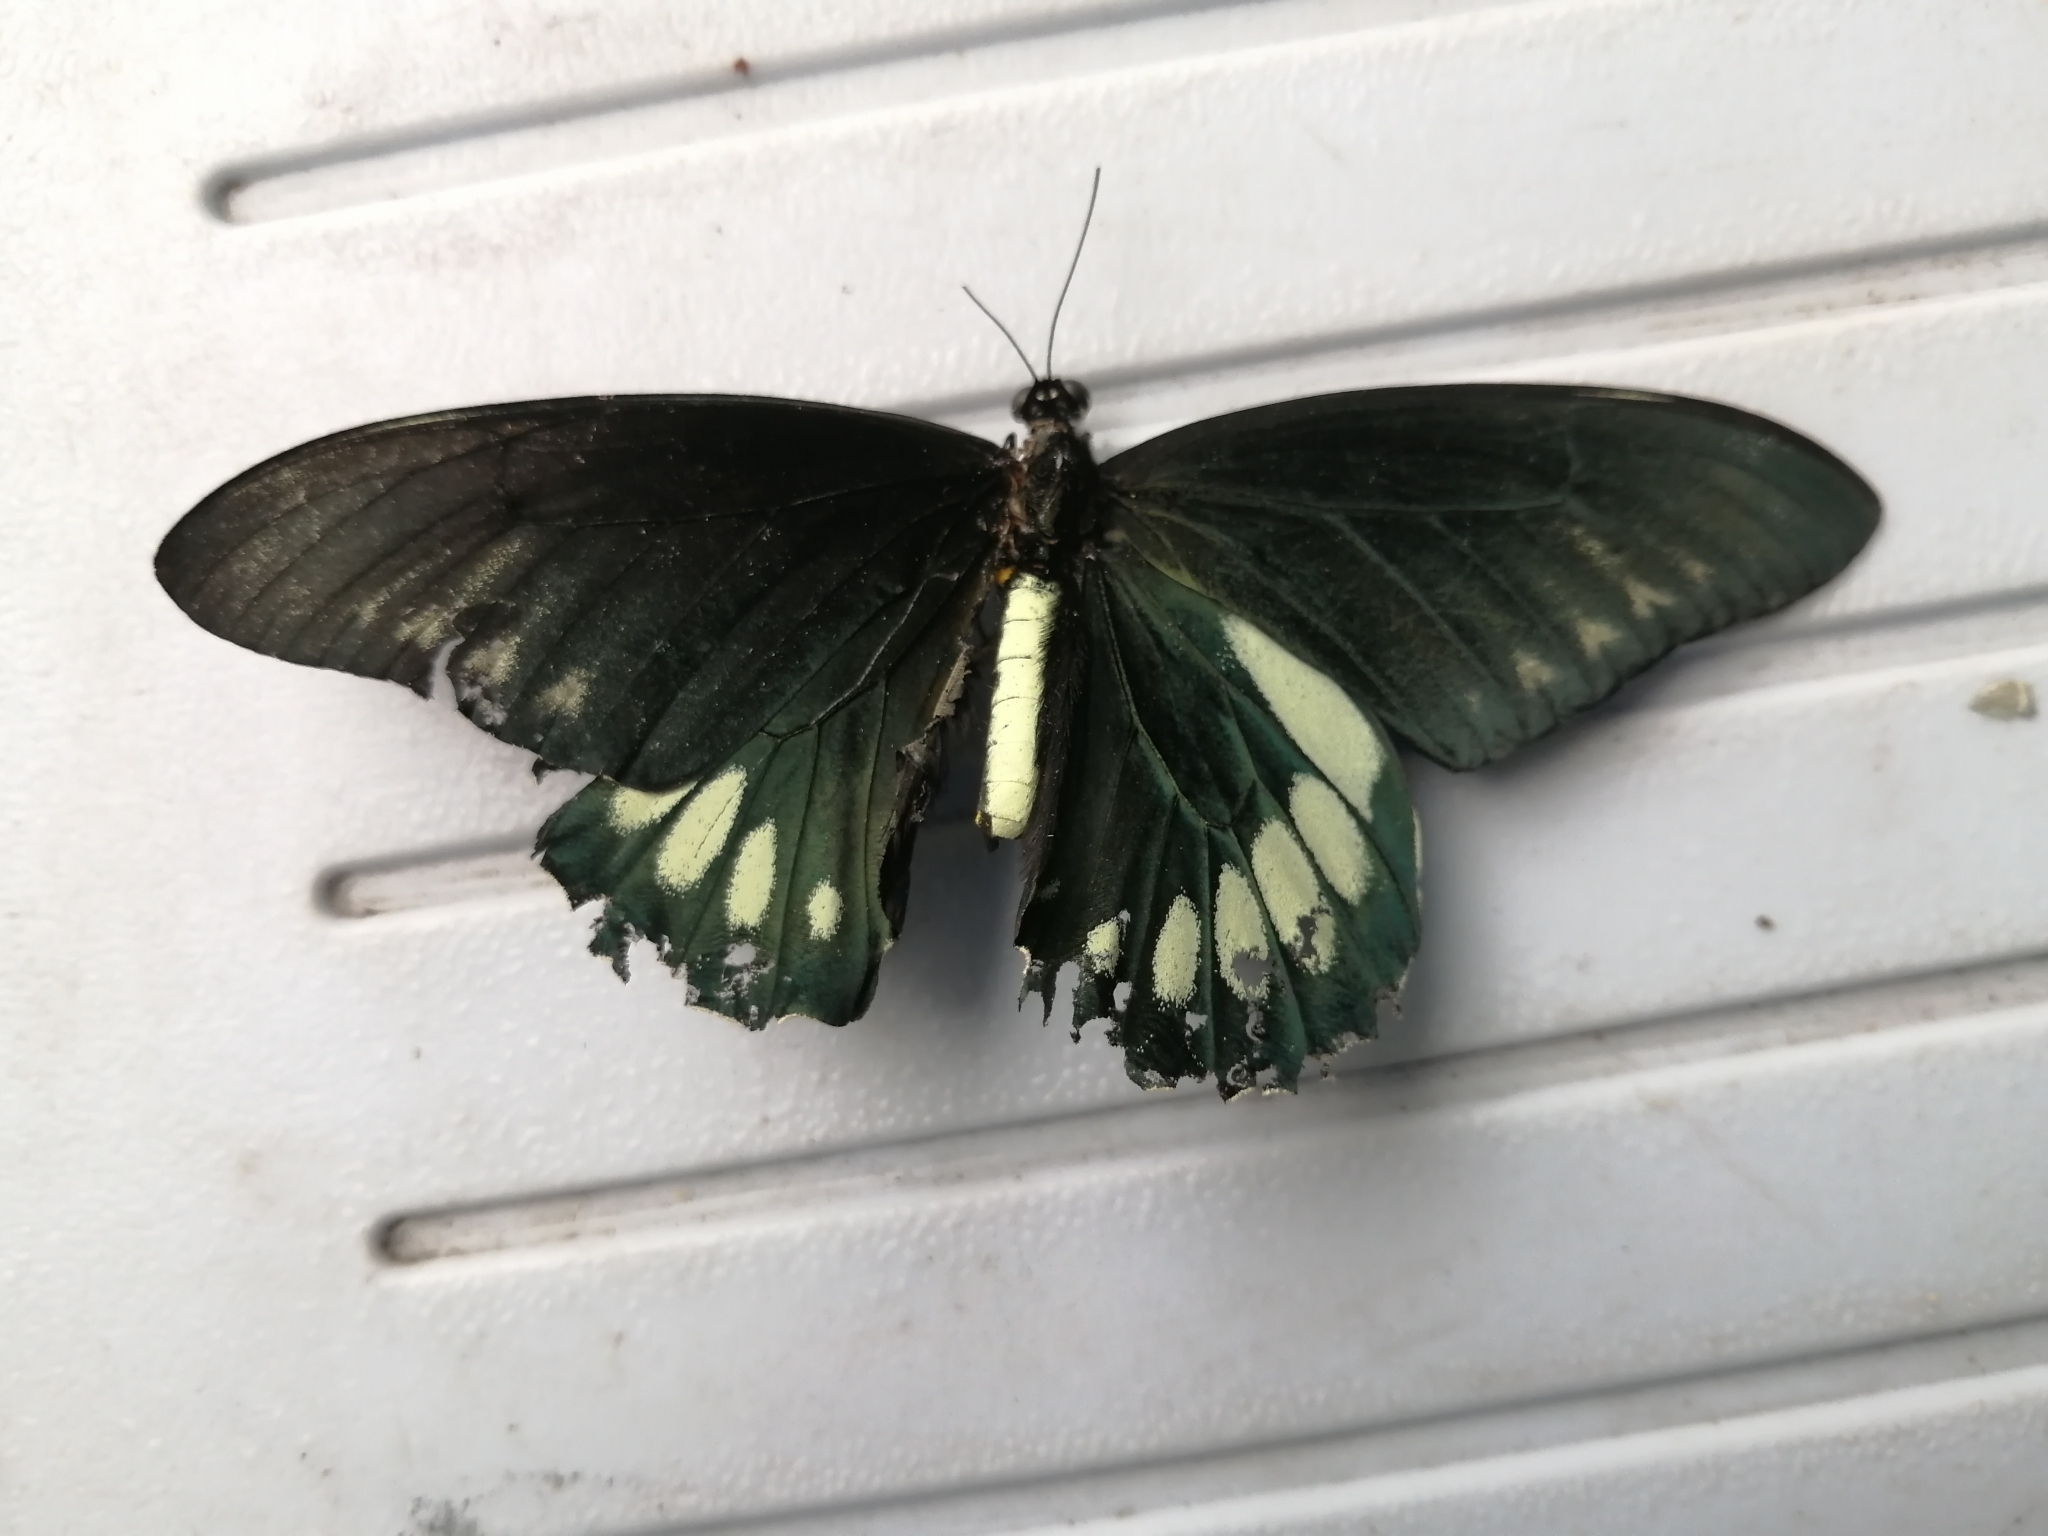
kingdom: Animalia
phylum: Arthropoda
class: Insecta
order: Lepidoptera
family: Papilionidae
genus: Battus
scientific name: Battus laodamas
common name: Green-patch swallowtail
